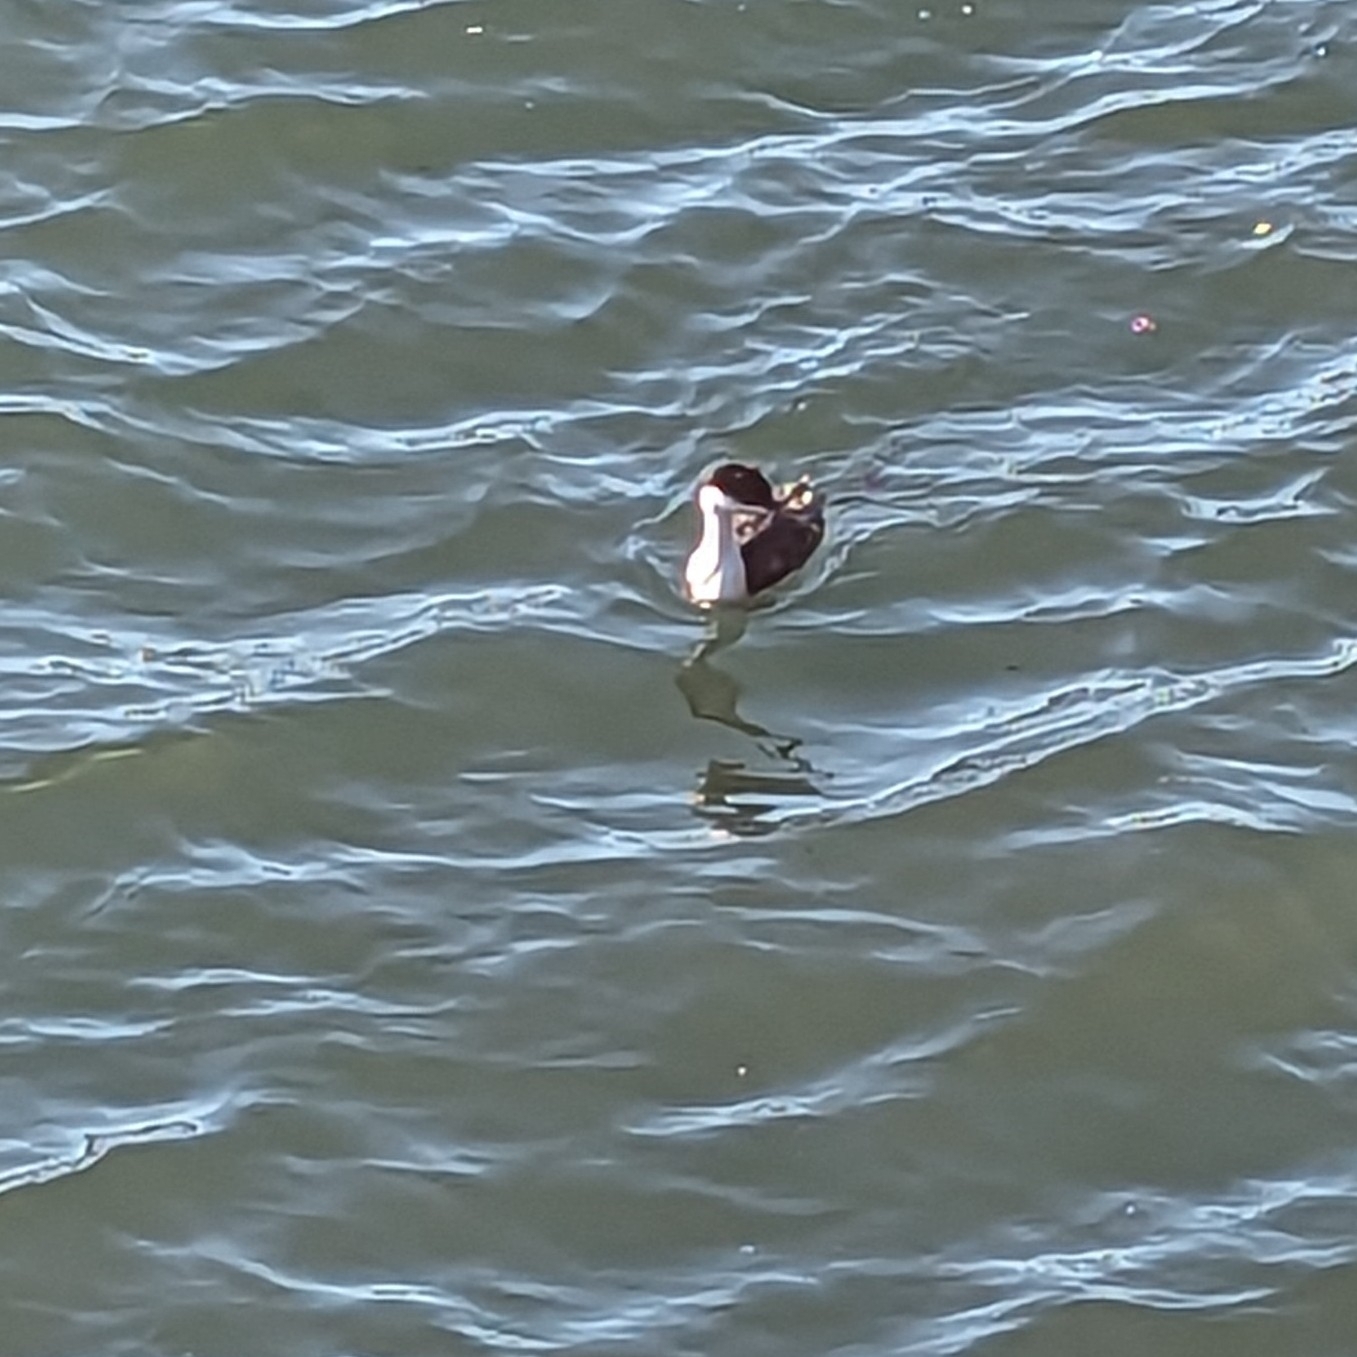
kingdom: Animalia
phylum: Chordata
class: Aves
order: Podicipediformes
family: Podicipedidae
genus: Aechmophorus
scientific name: Aechmophorus occidentalis
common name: Western grebe
